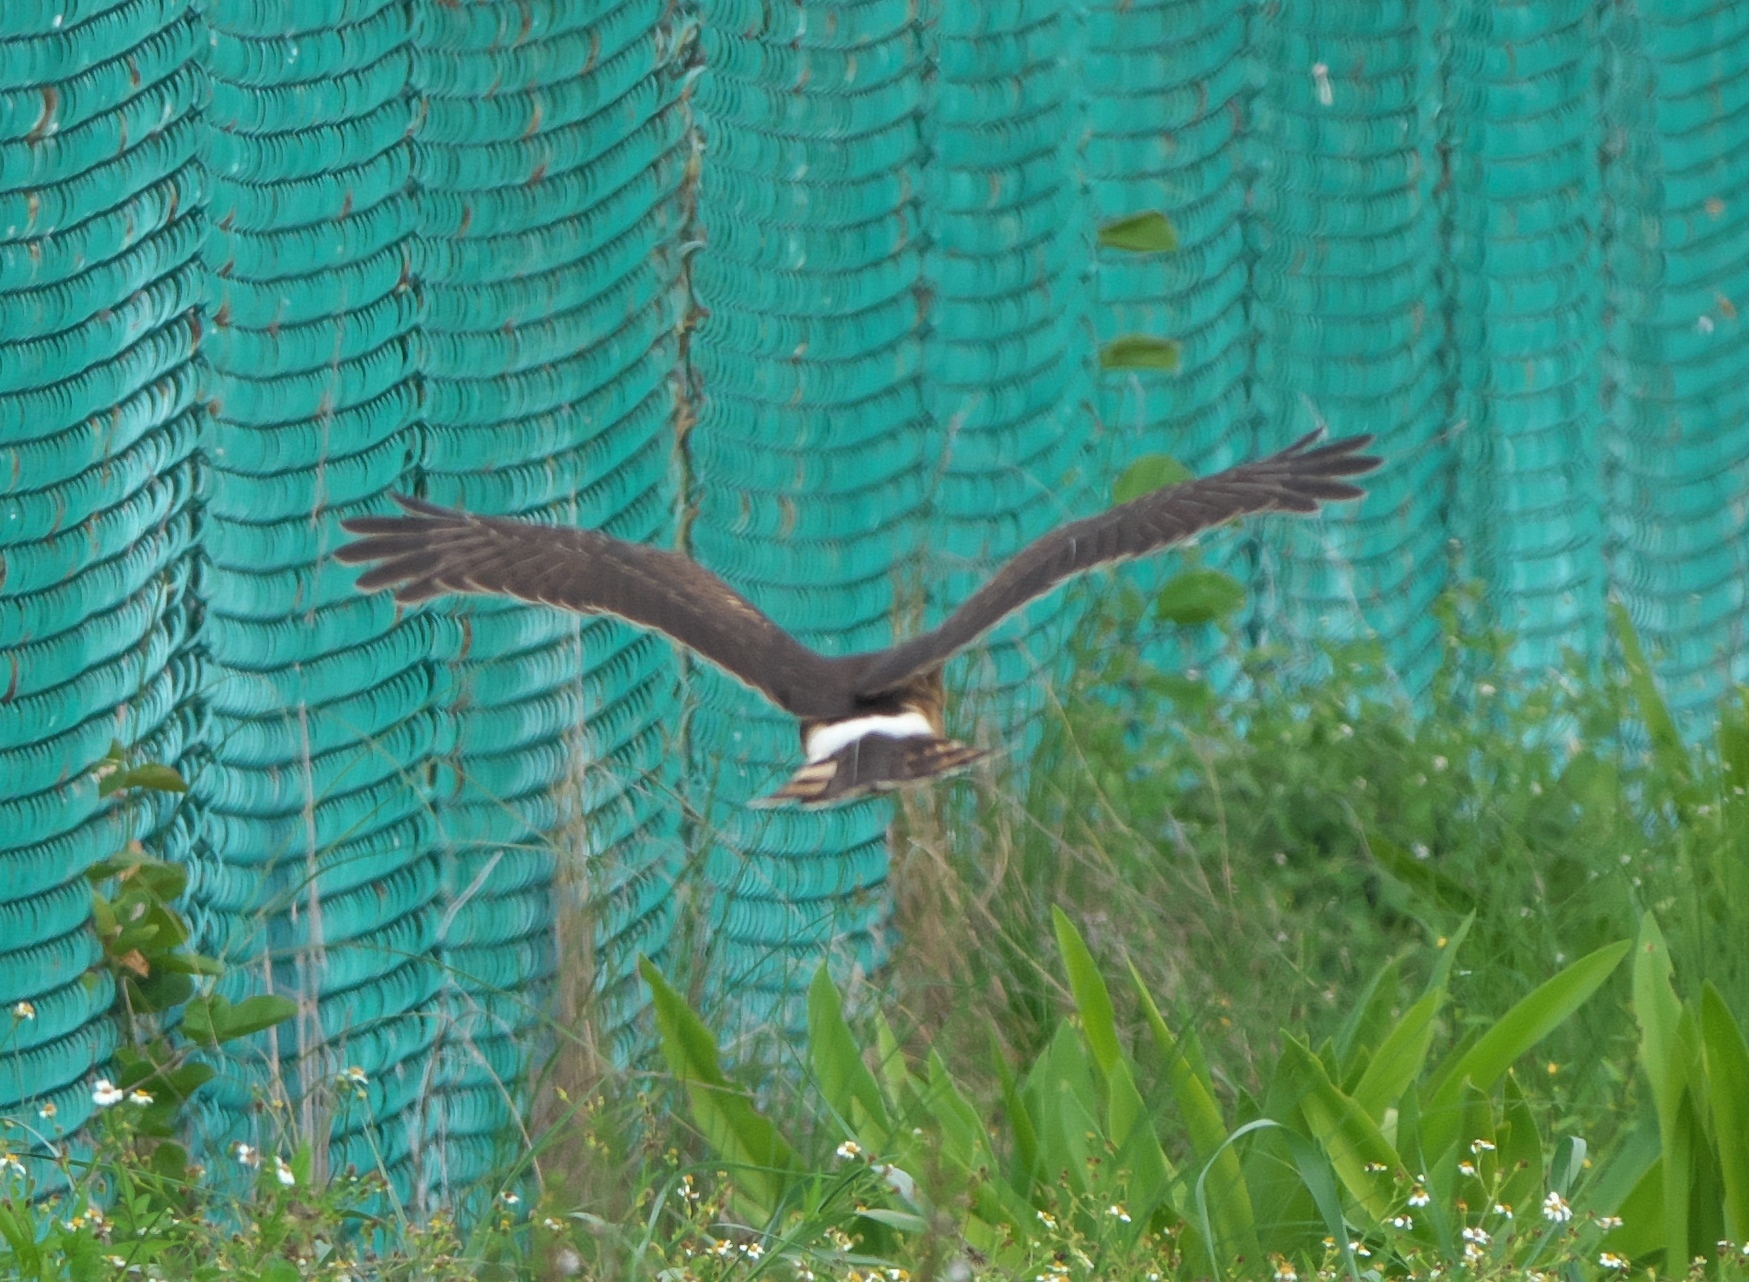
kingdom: Animalia
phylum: Chordata
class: Aves
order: Accipitriformes
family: Accipitridae
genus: Circus
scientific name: Circus cyaneus
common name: Hen harrier
